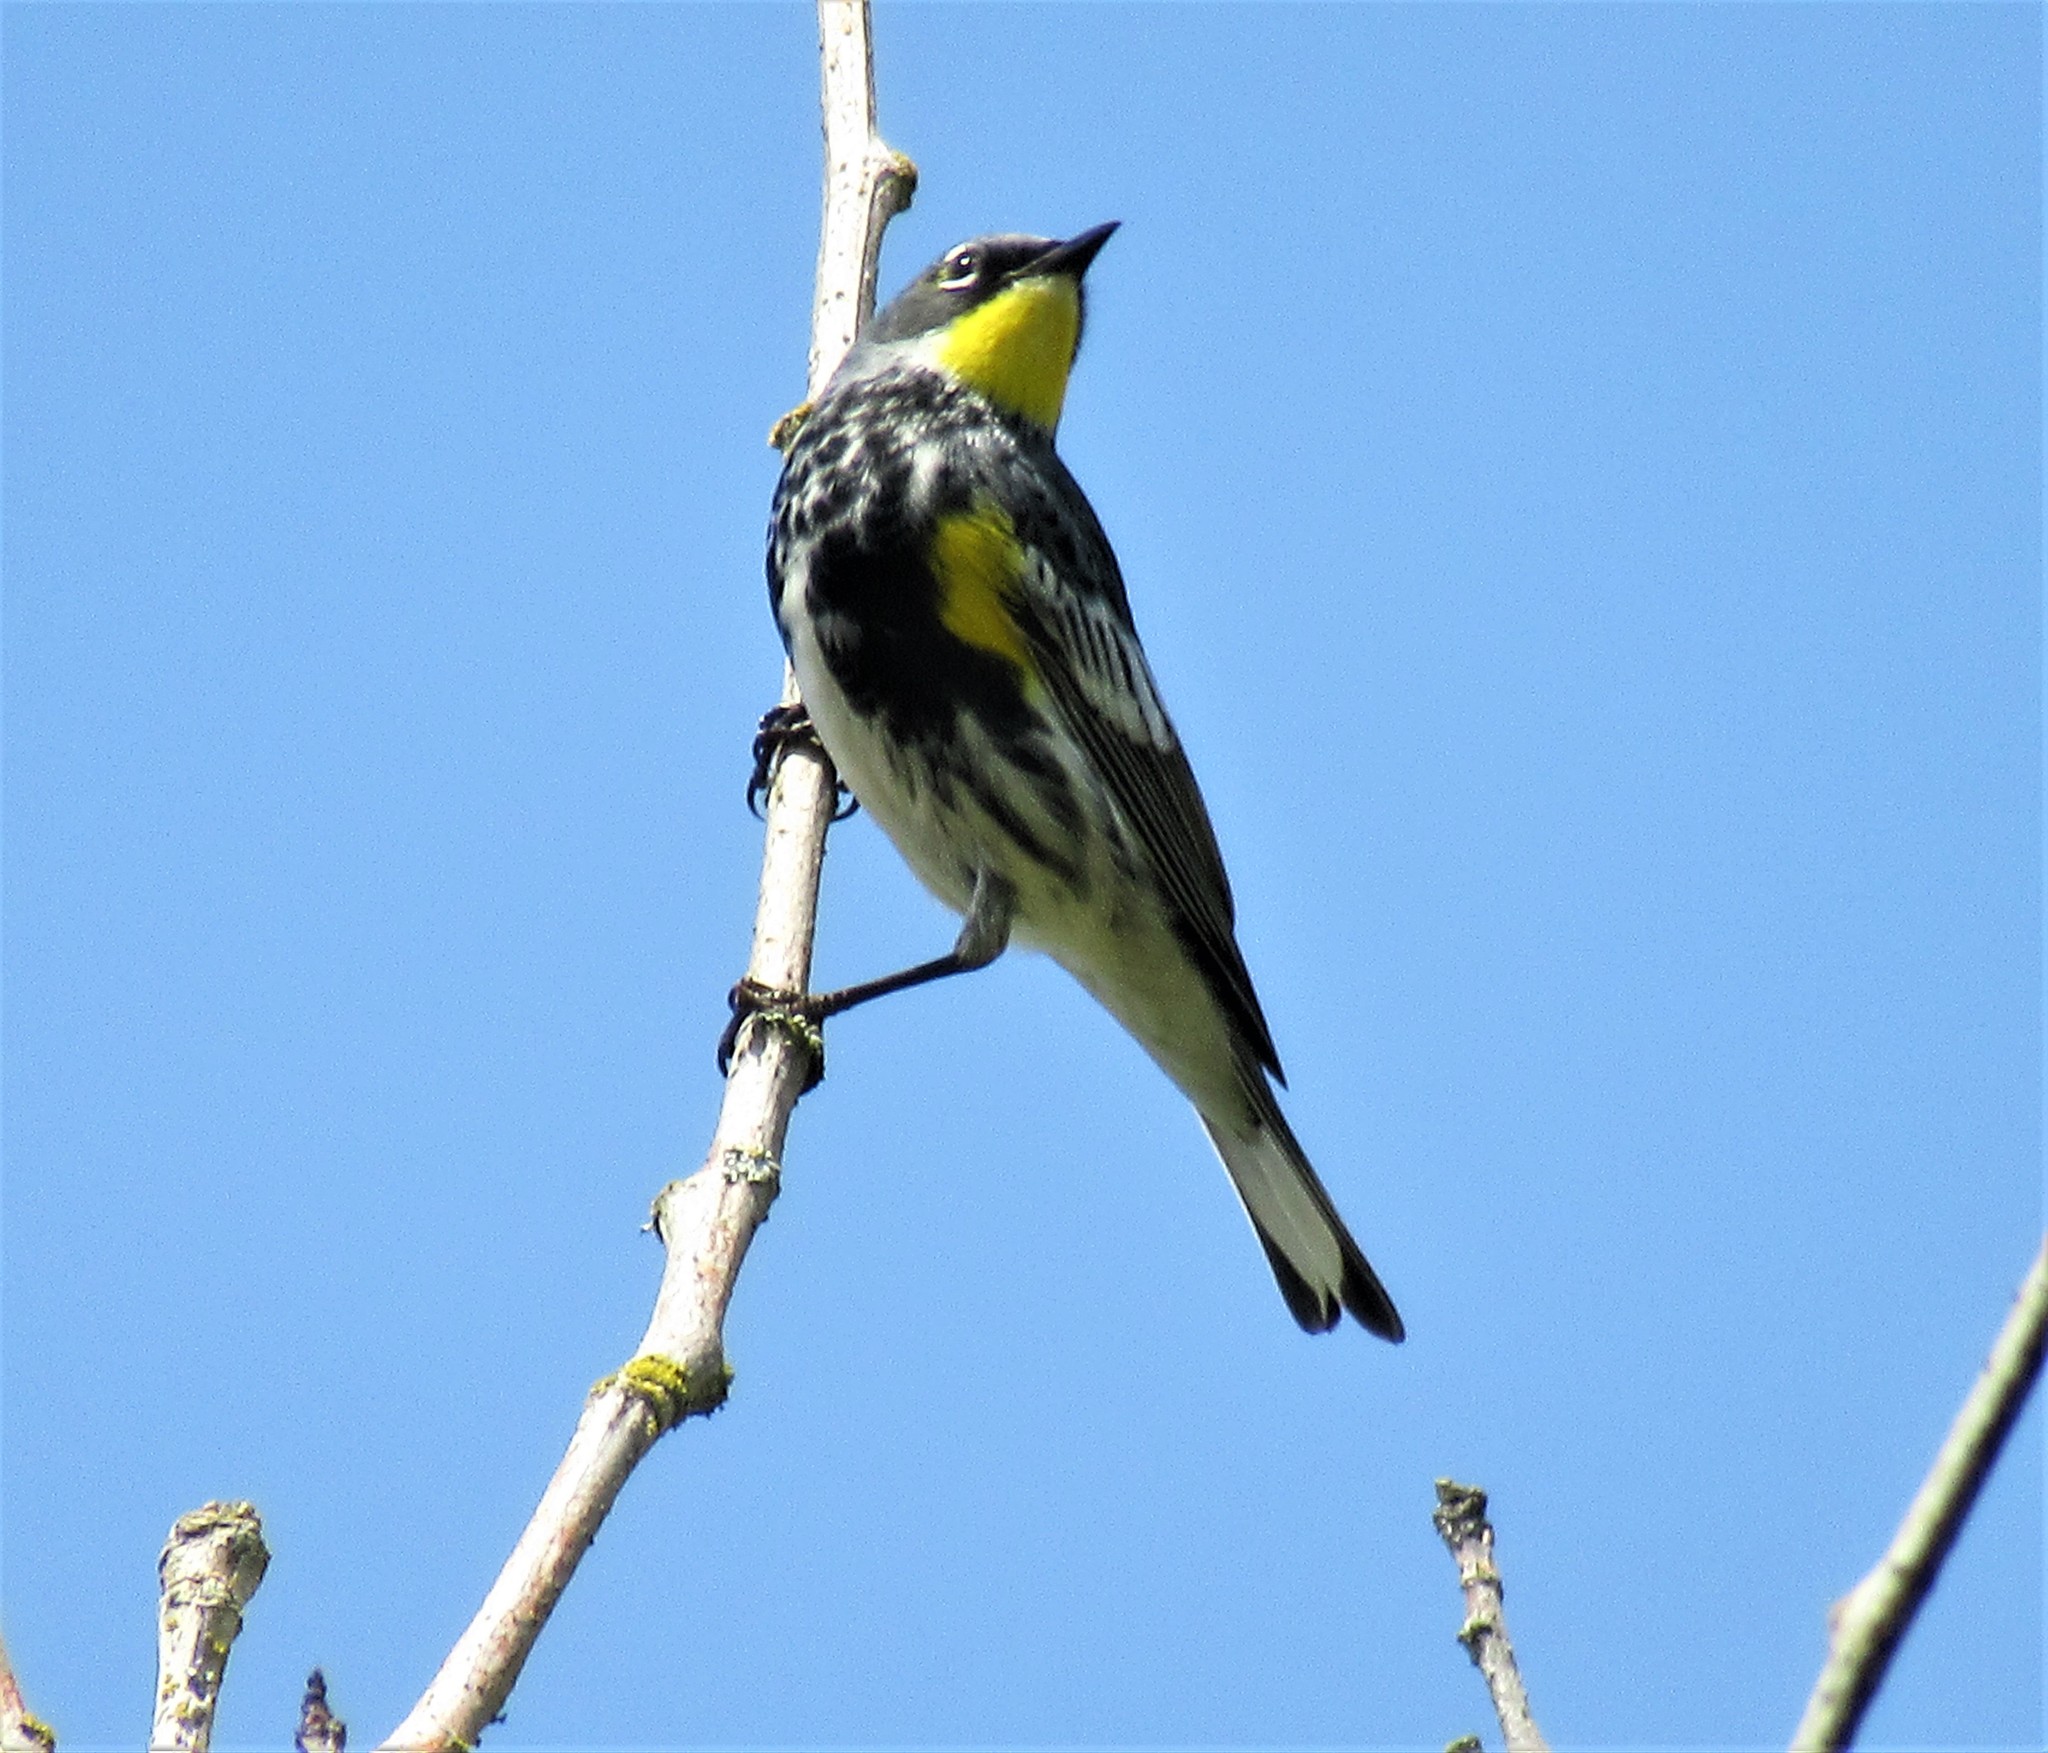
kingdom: Animalia
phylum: Chordata
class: Aves
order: Passeriformes
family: Parulidae
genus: Setophaga
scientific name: Setophaga auduboni
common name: Audubon's warbler
